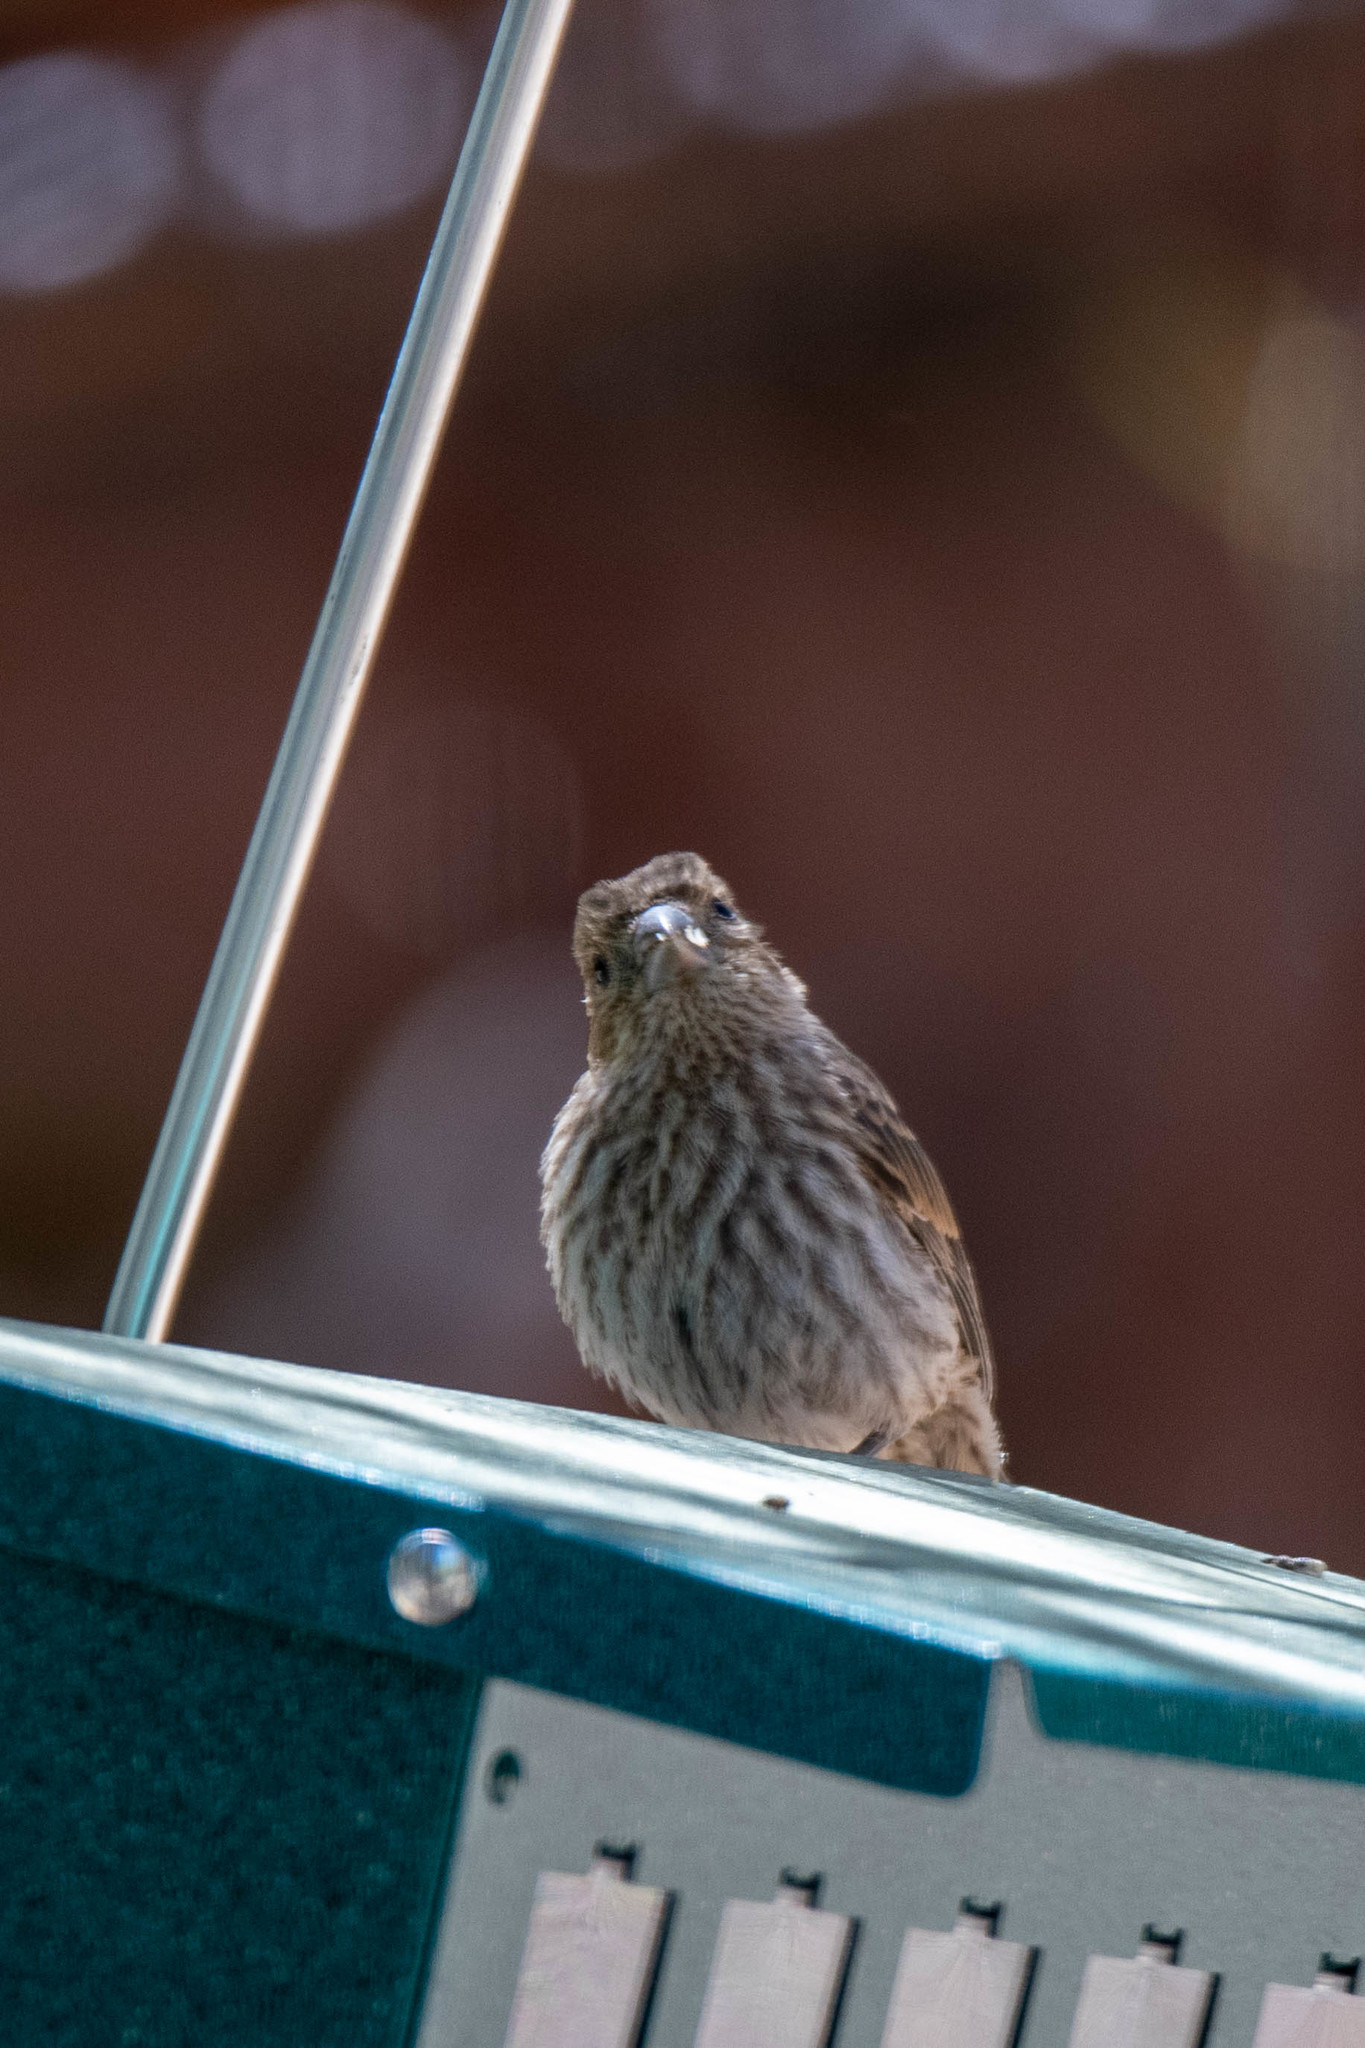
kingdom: Animalia
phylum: Chordata
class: Aves
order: Passeriformes
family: Fringillidae
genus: Haemorhous
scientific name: Haemorhous mexicanus
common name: House finch
